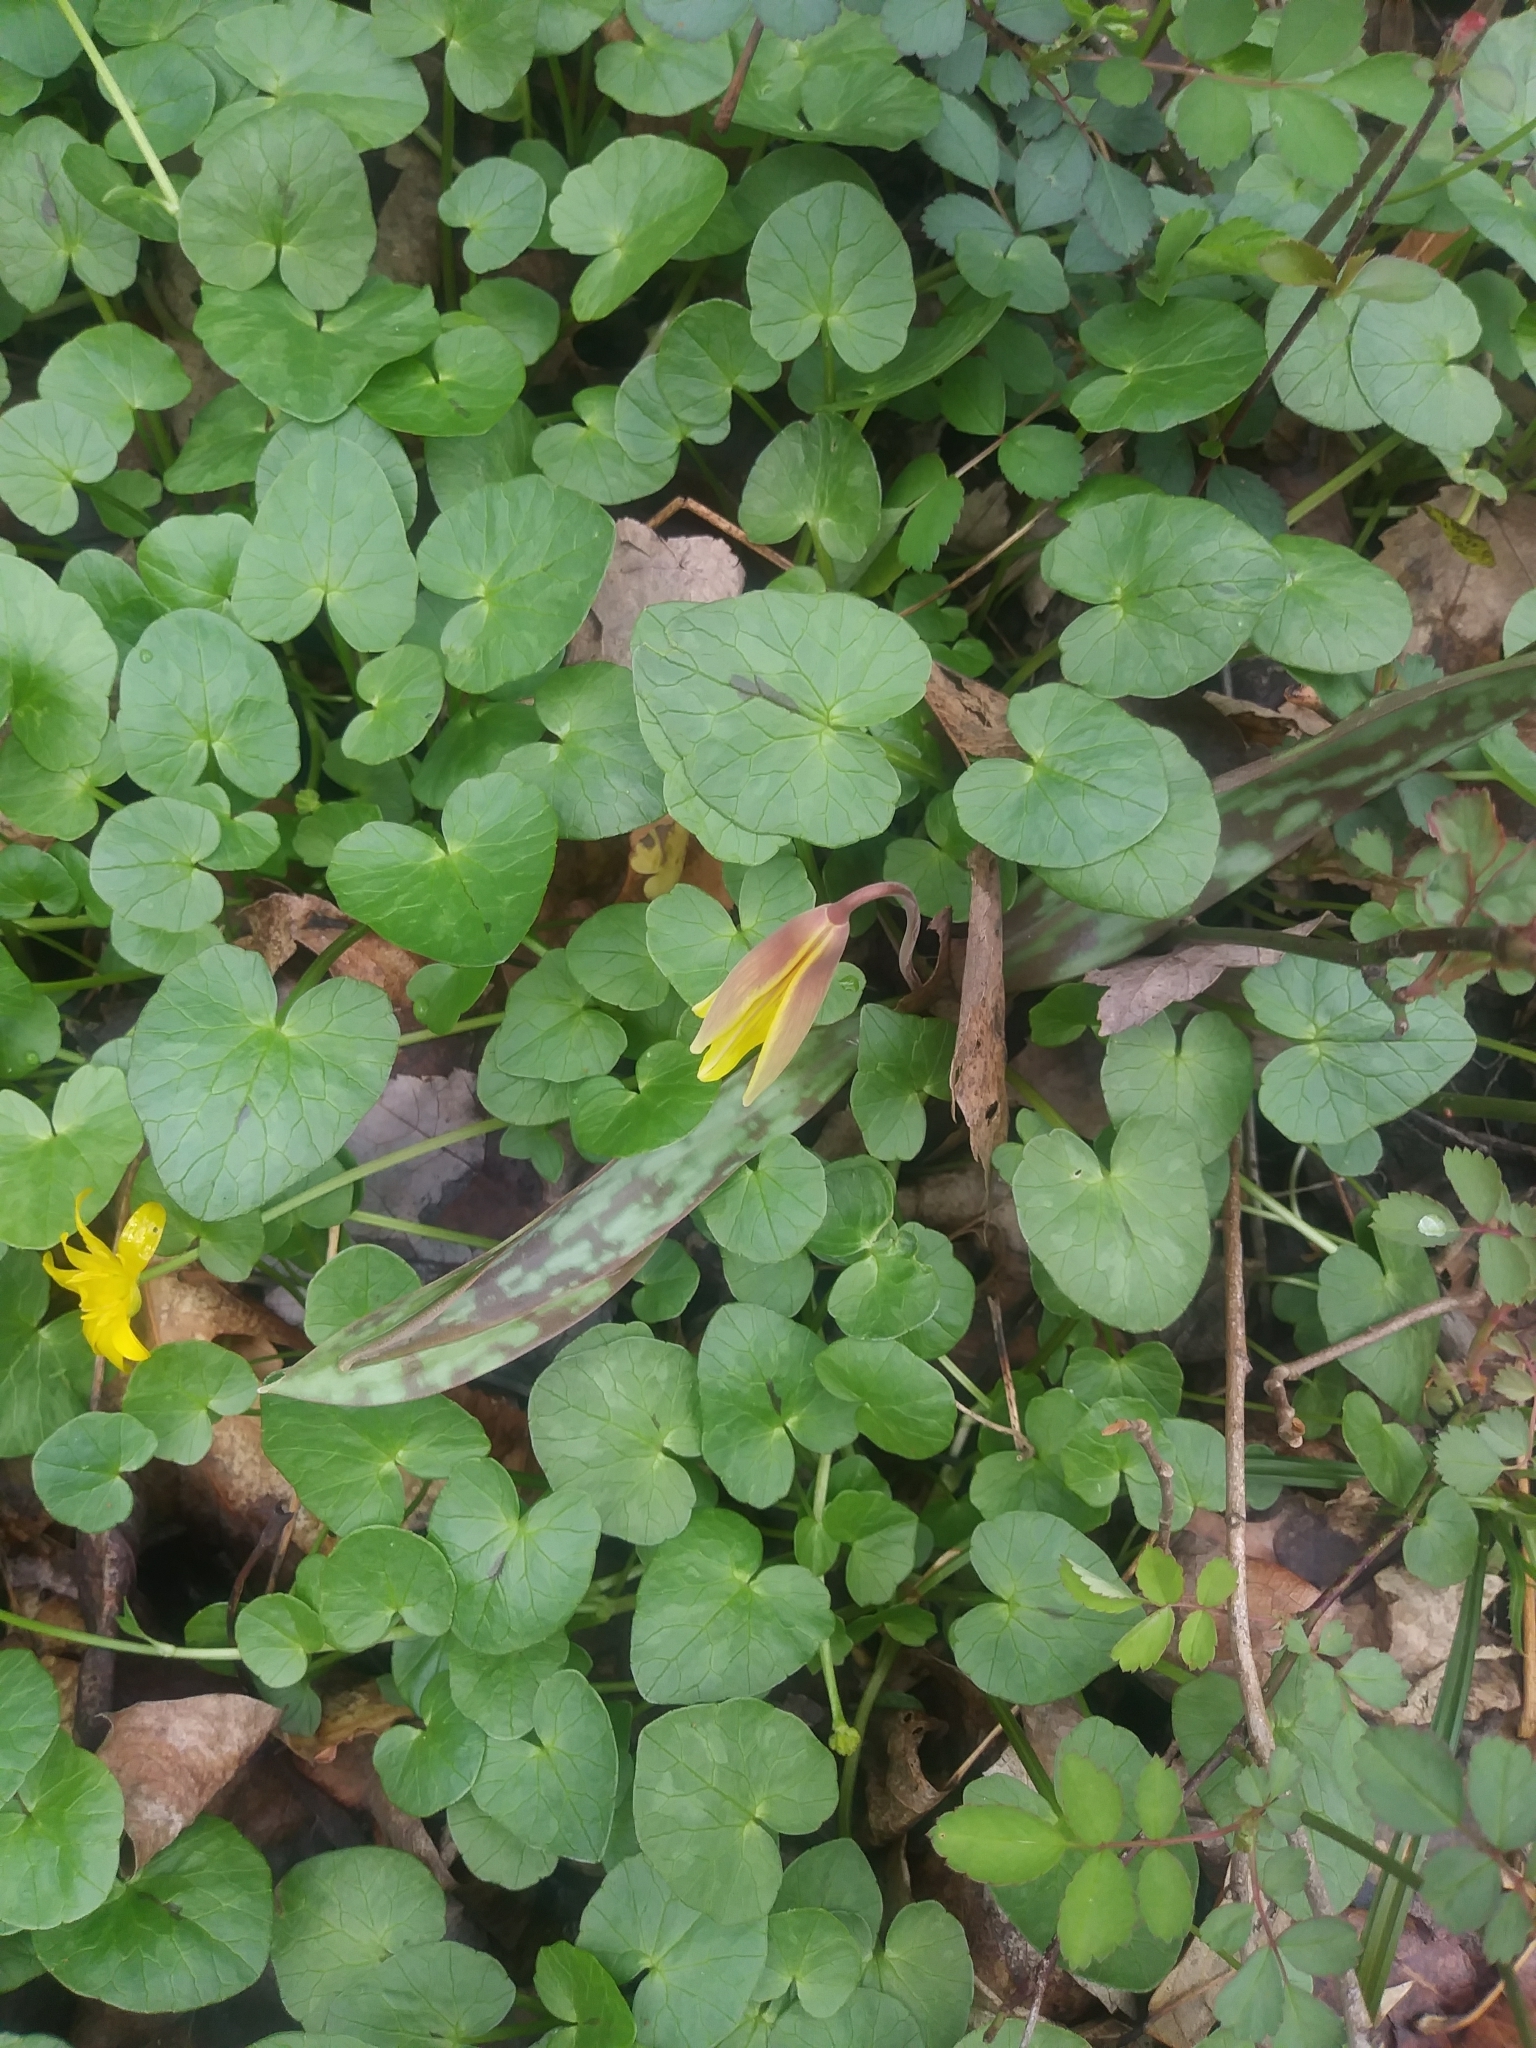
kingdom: Plantae
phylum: Tracheophyta
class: Liliopsida
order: Liliales
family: Liliaceae
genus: Erythronium
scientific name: Erythronium americanum
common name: Yellow adder's-tongue
